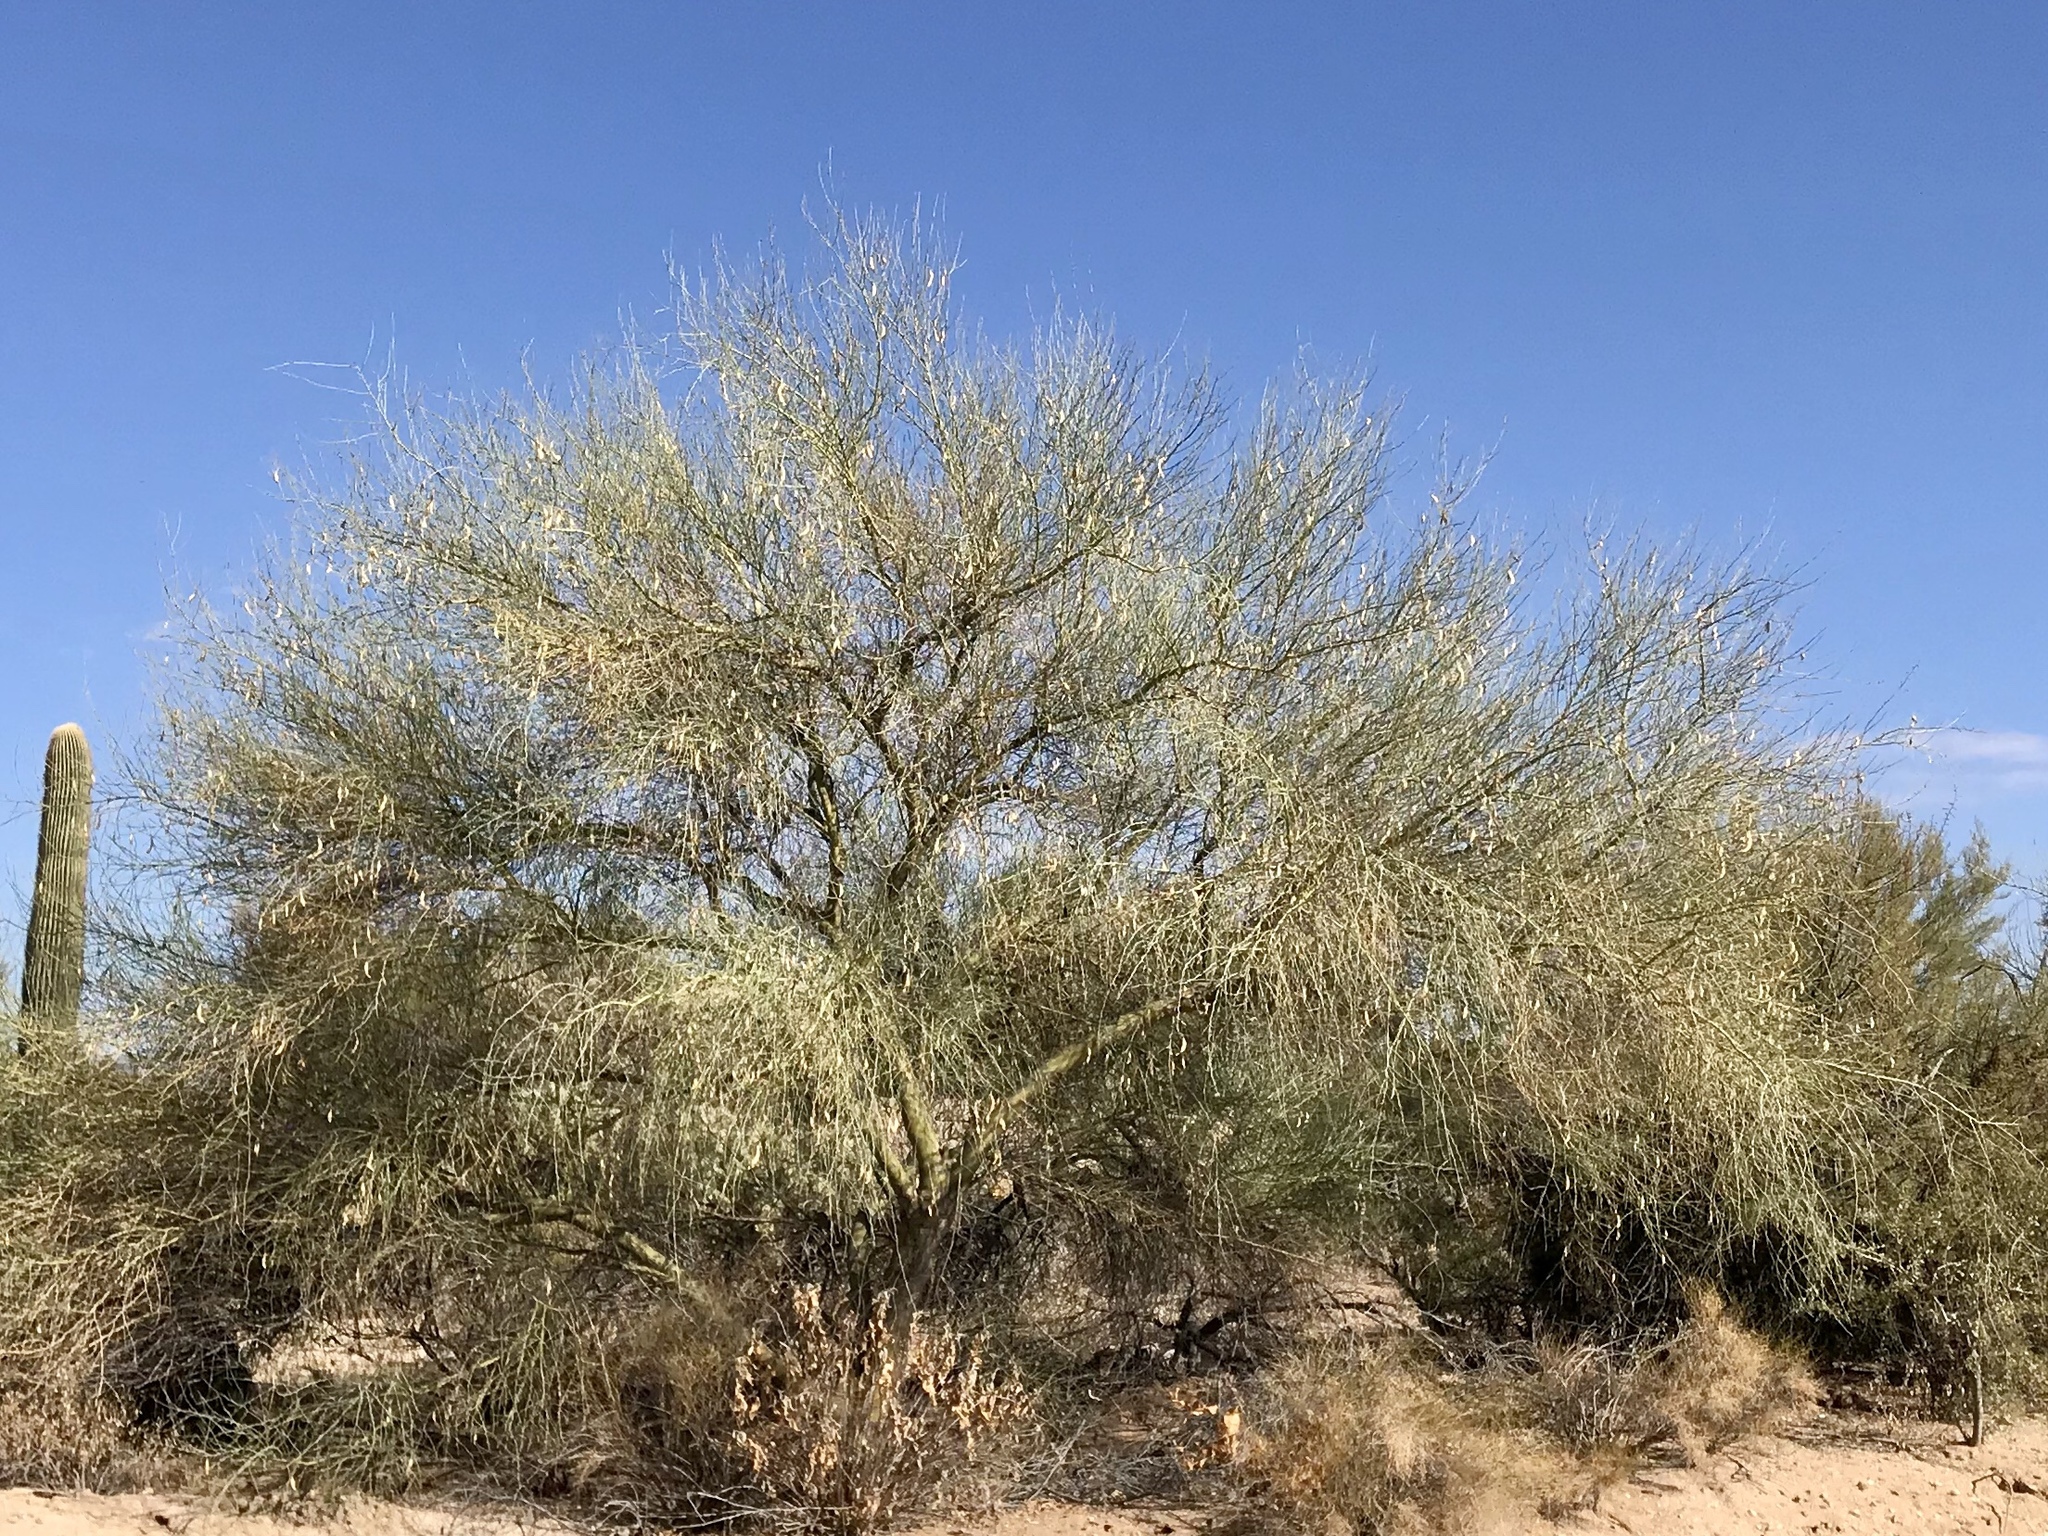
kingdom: Plantae
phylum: Tracheophyta
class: Magnoliopsida
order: Fabales
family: Fabaceae
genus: Parkinsonia
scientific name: Parkinsonia florida
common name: Blue paloverde
